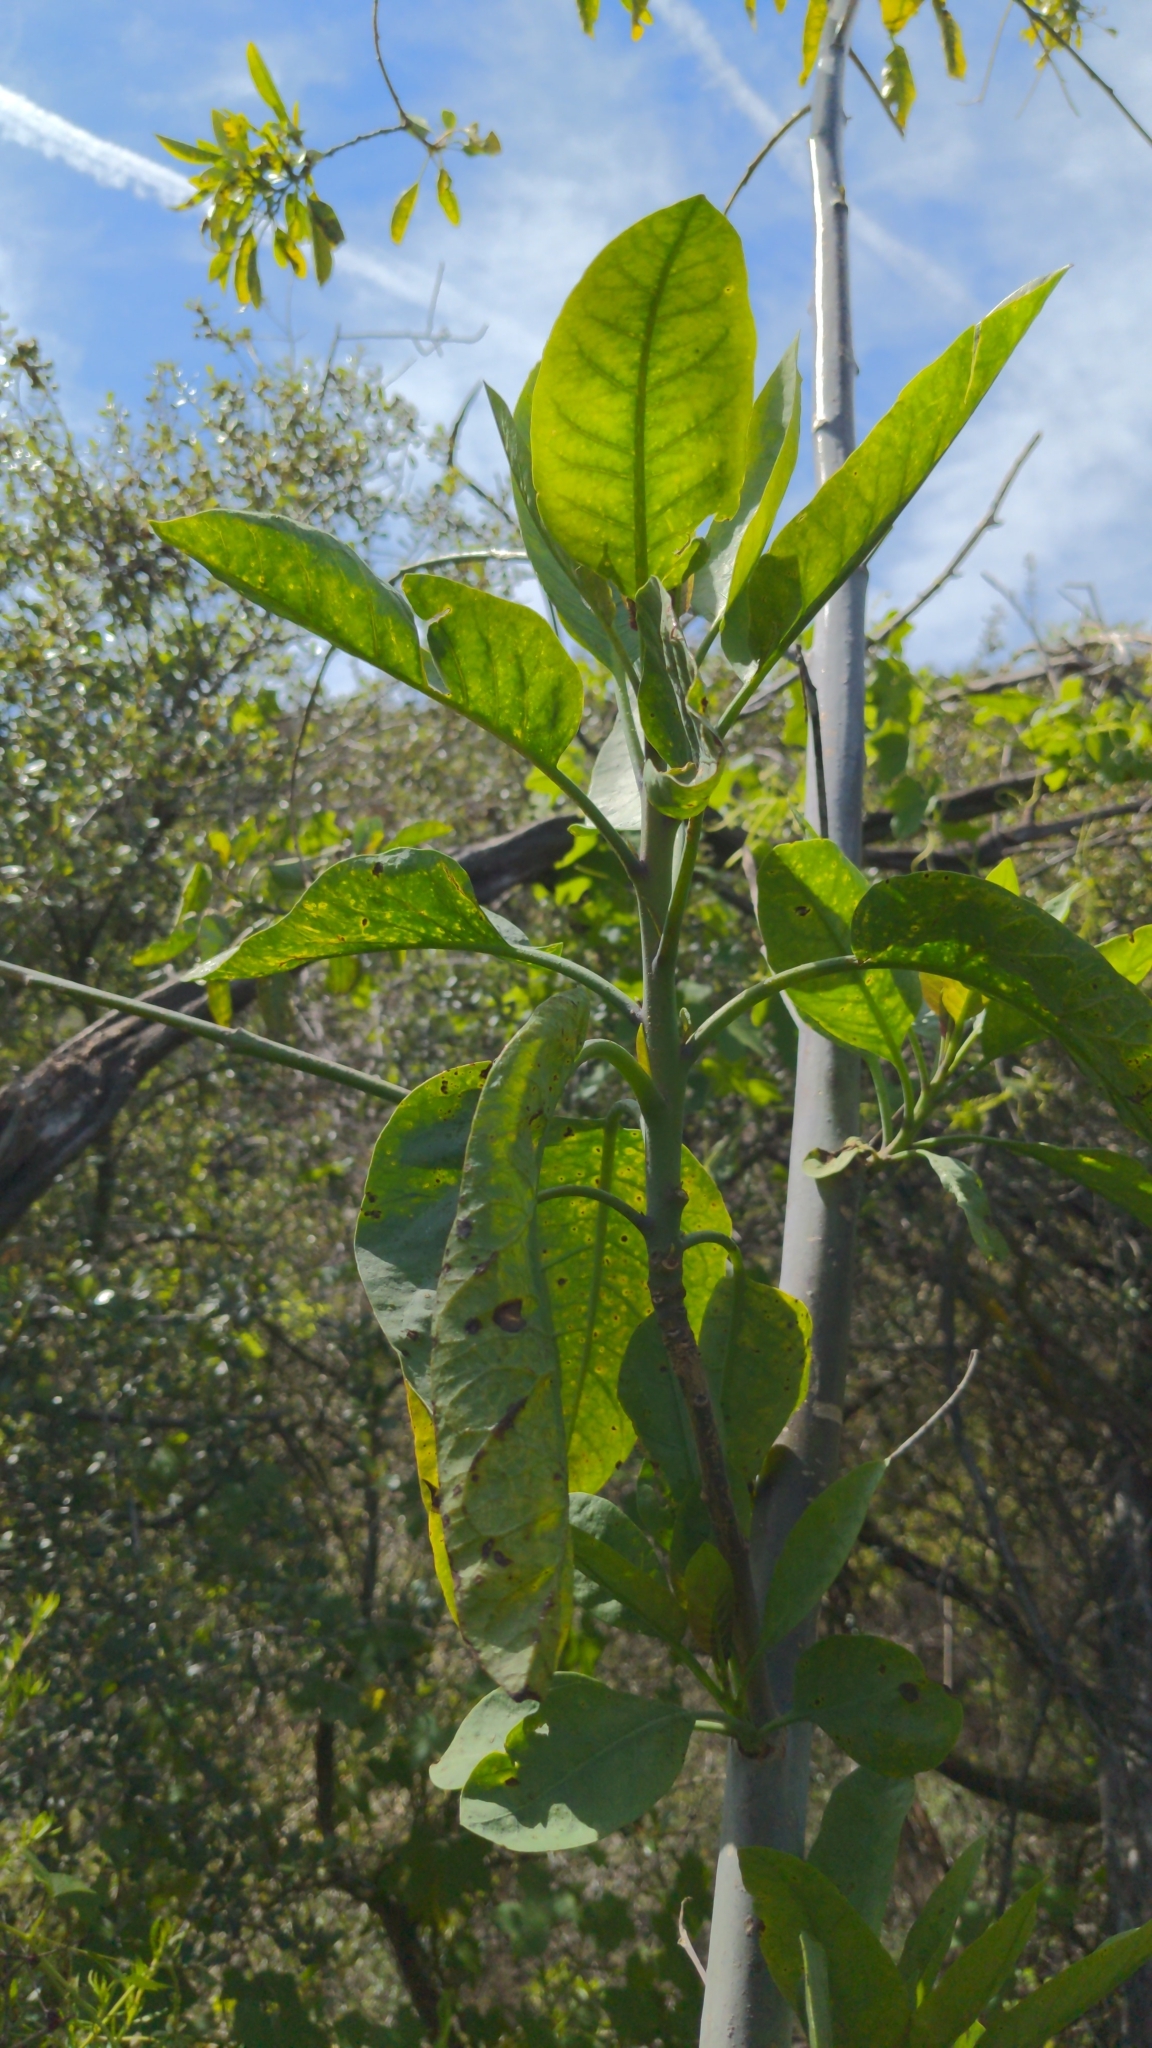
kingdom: Plantae
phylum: Tracheophyta
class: Magnoliopsida
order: Solanales
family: Solanaceae
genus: Nicotiana
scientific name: Nicotiana glauca
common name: Tree tobacco
